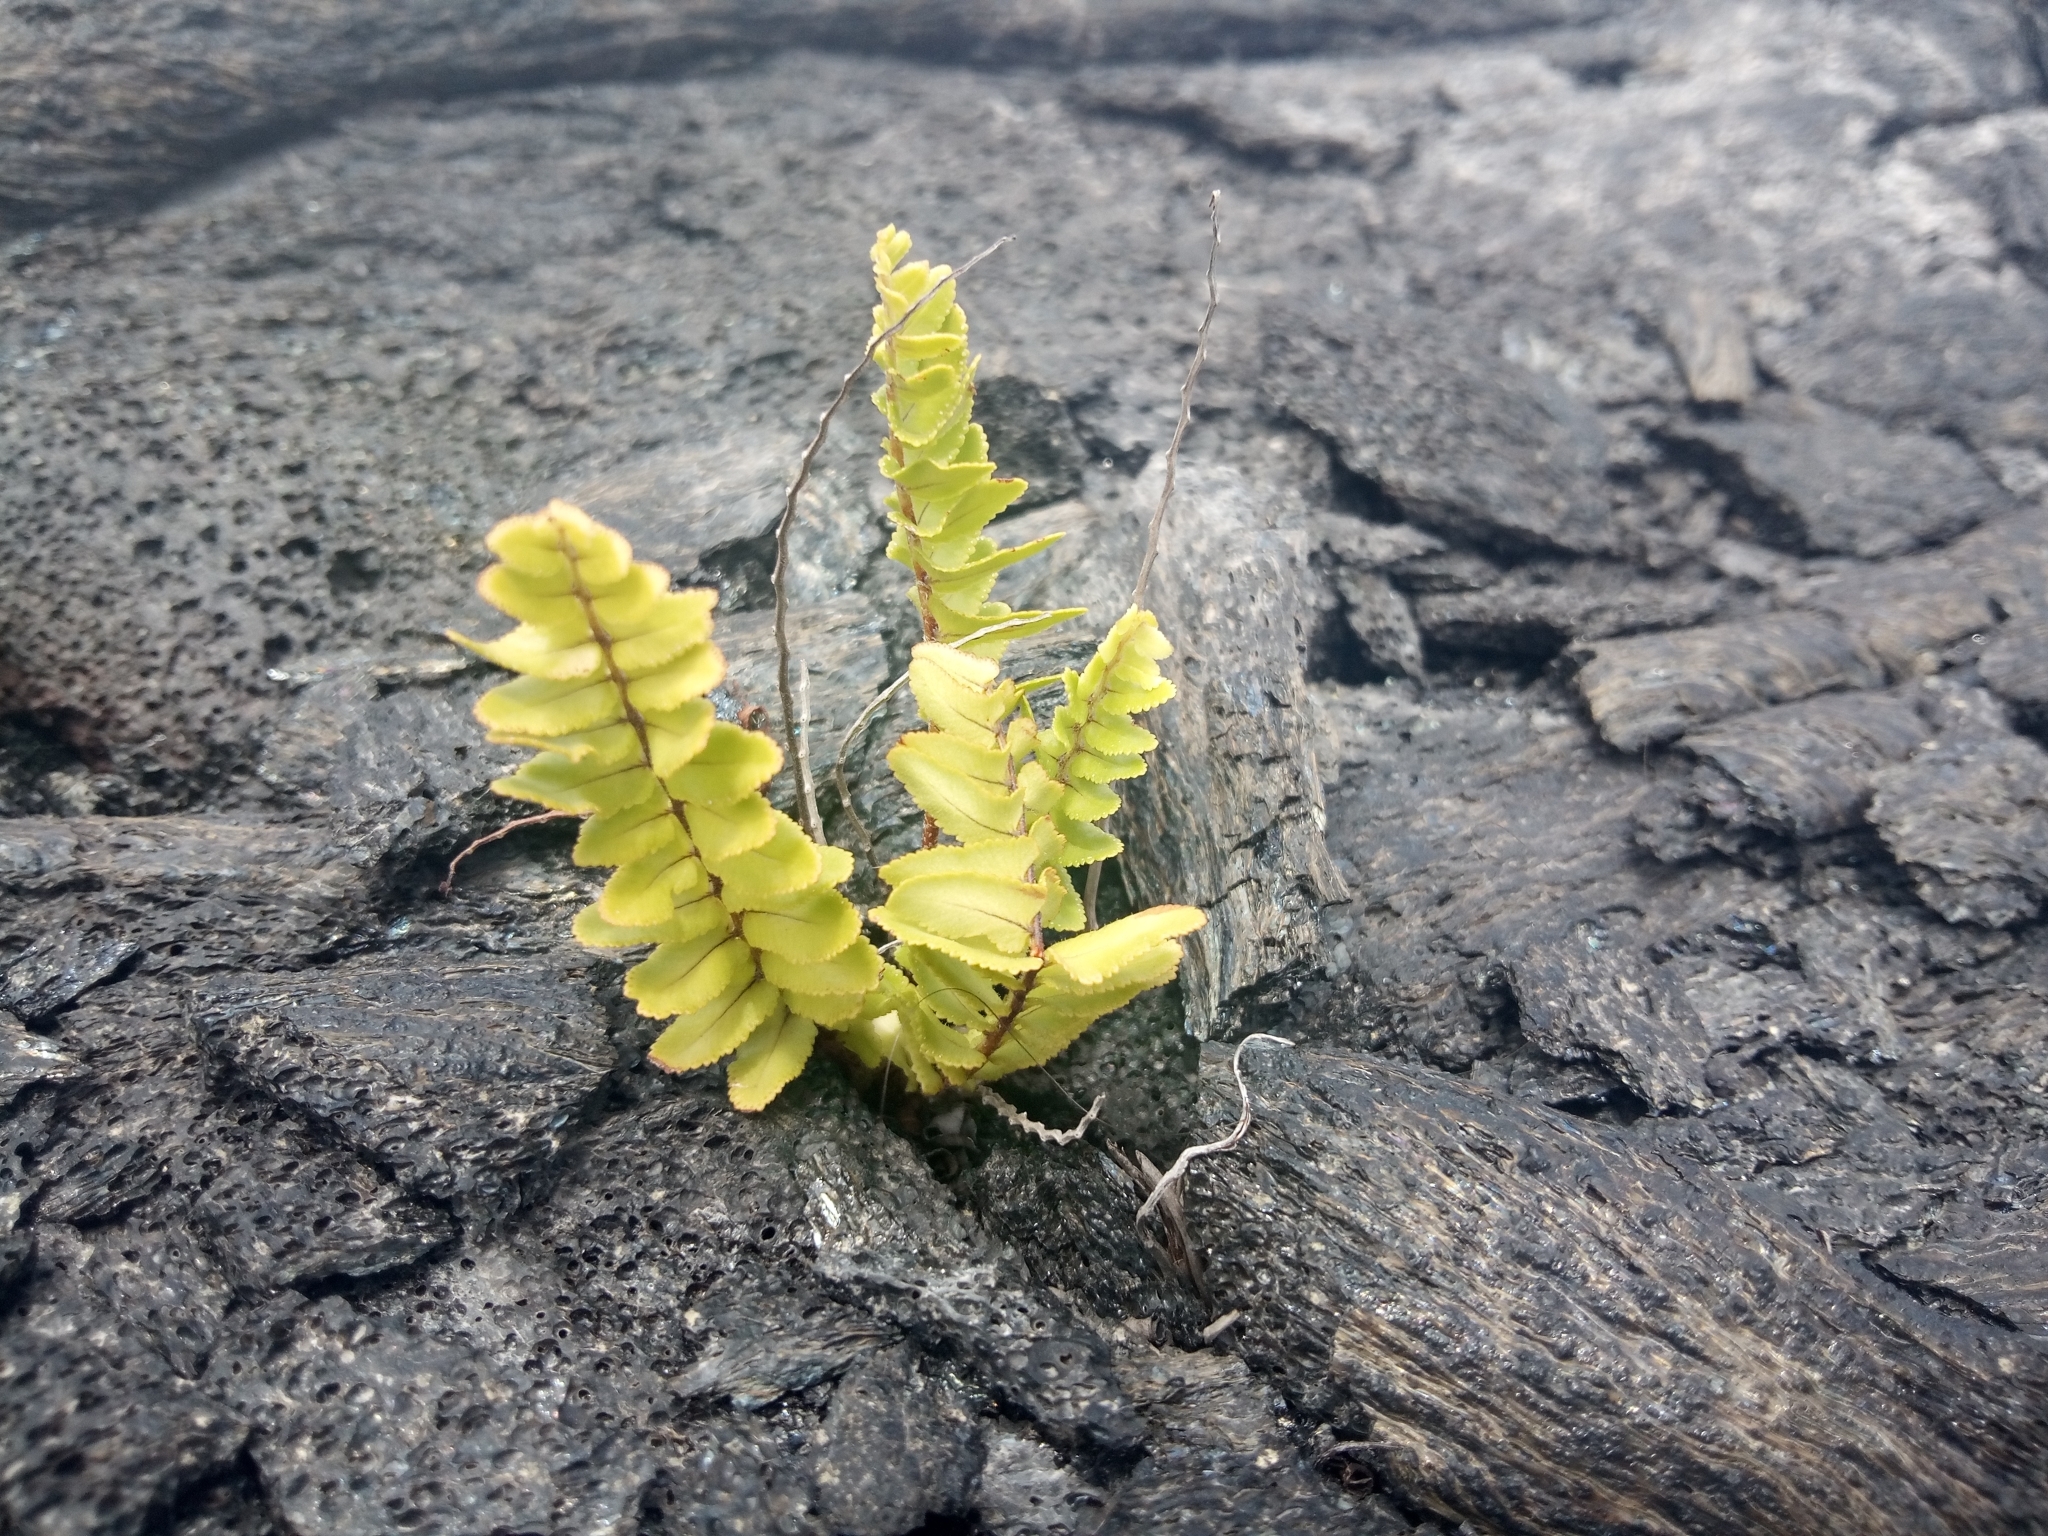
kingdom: Plantae
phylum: Tracheophyta
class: Polypodiopsida
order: Polypodiales
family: Nephrolepidaceae
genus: Nephrolepis
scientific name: Nephrolepis cordifolia
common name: Narrow swordfern
